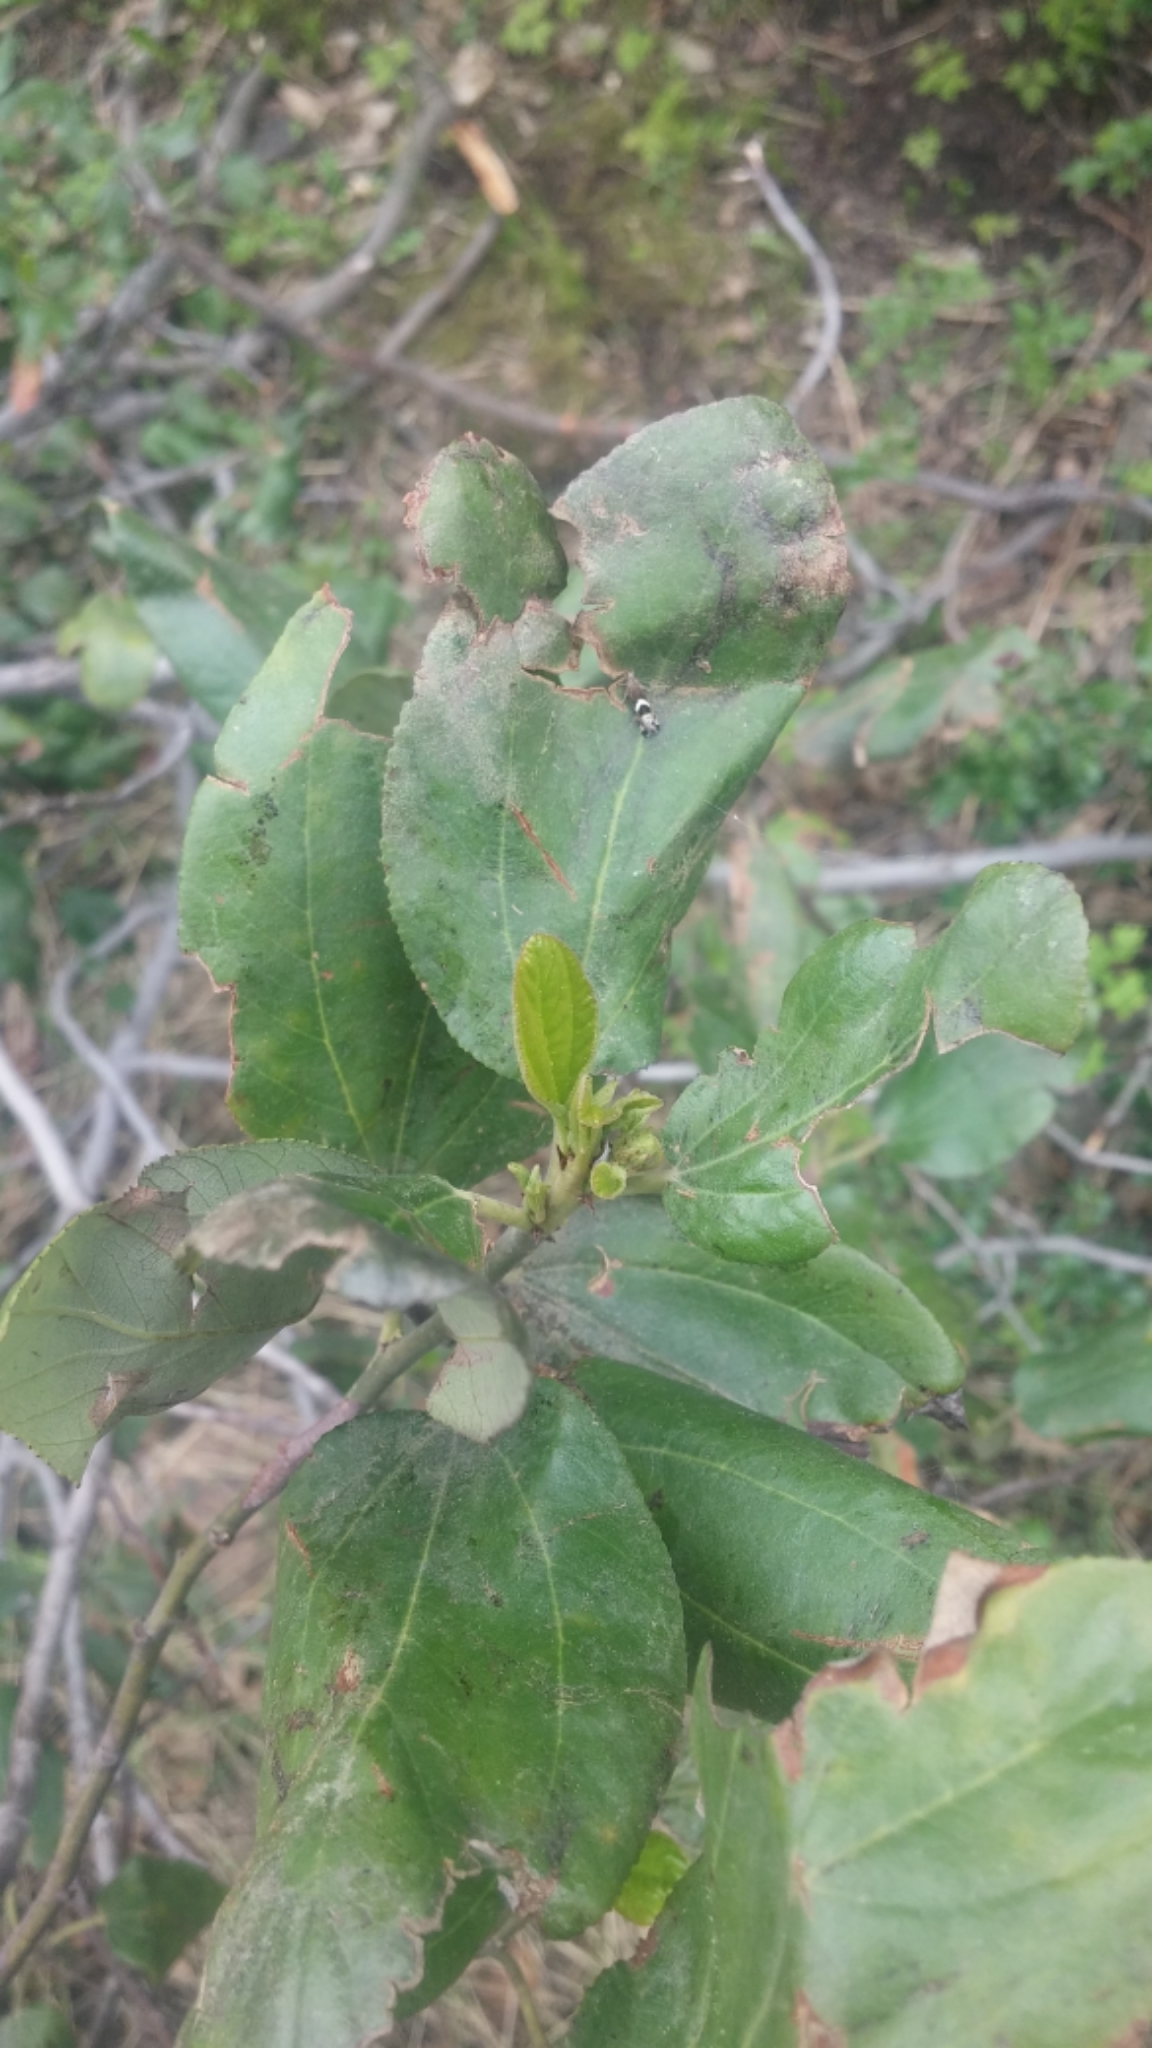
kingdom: Plantae
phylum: Tracheophyta
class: Magnoliopsida
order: Rosales
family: Rhamnaceae
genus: Ceanothus
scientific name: Ceanothus velutinus
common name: Snowbrush
